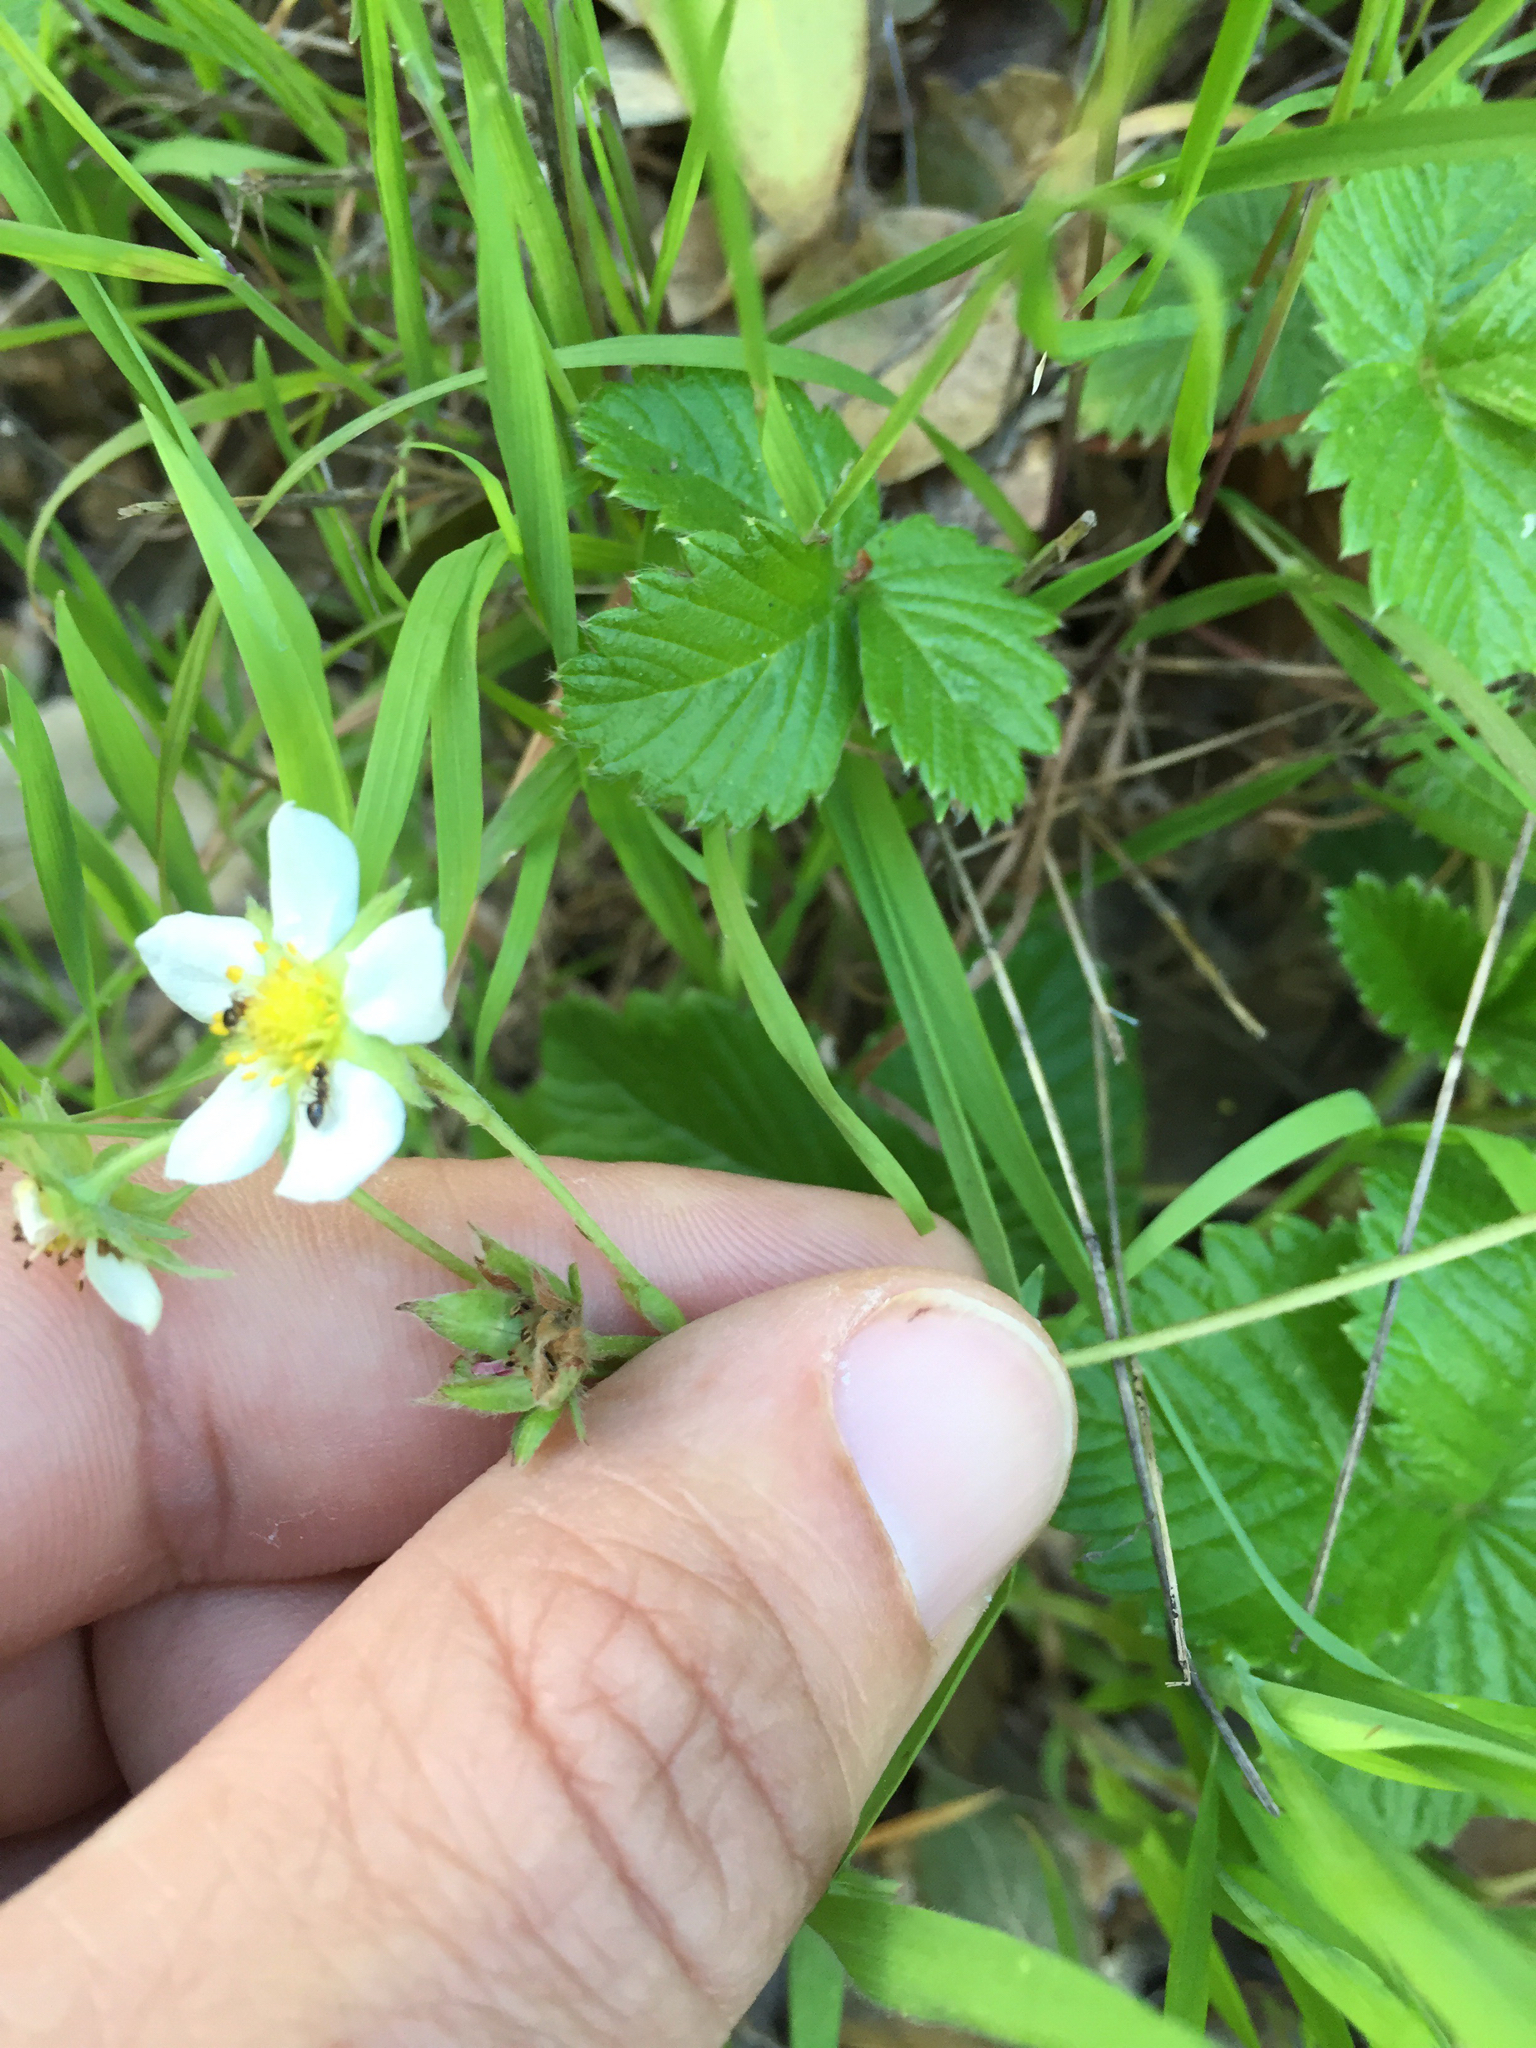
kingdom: Plantae
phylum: Tracheophyta
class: Magnoliopsida
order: Rosales
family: Rosaceae
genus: Fragaria
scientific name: Fragaria vesca
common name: Wild strawberry
